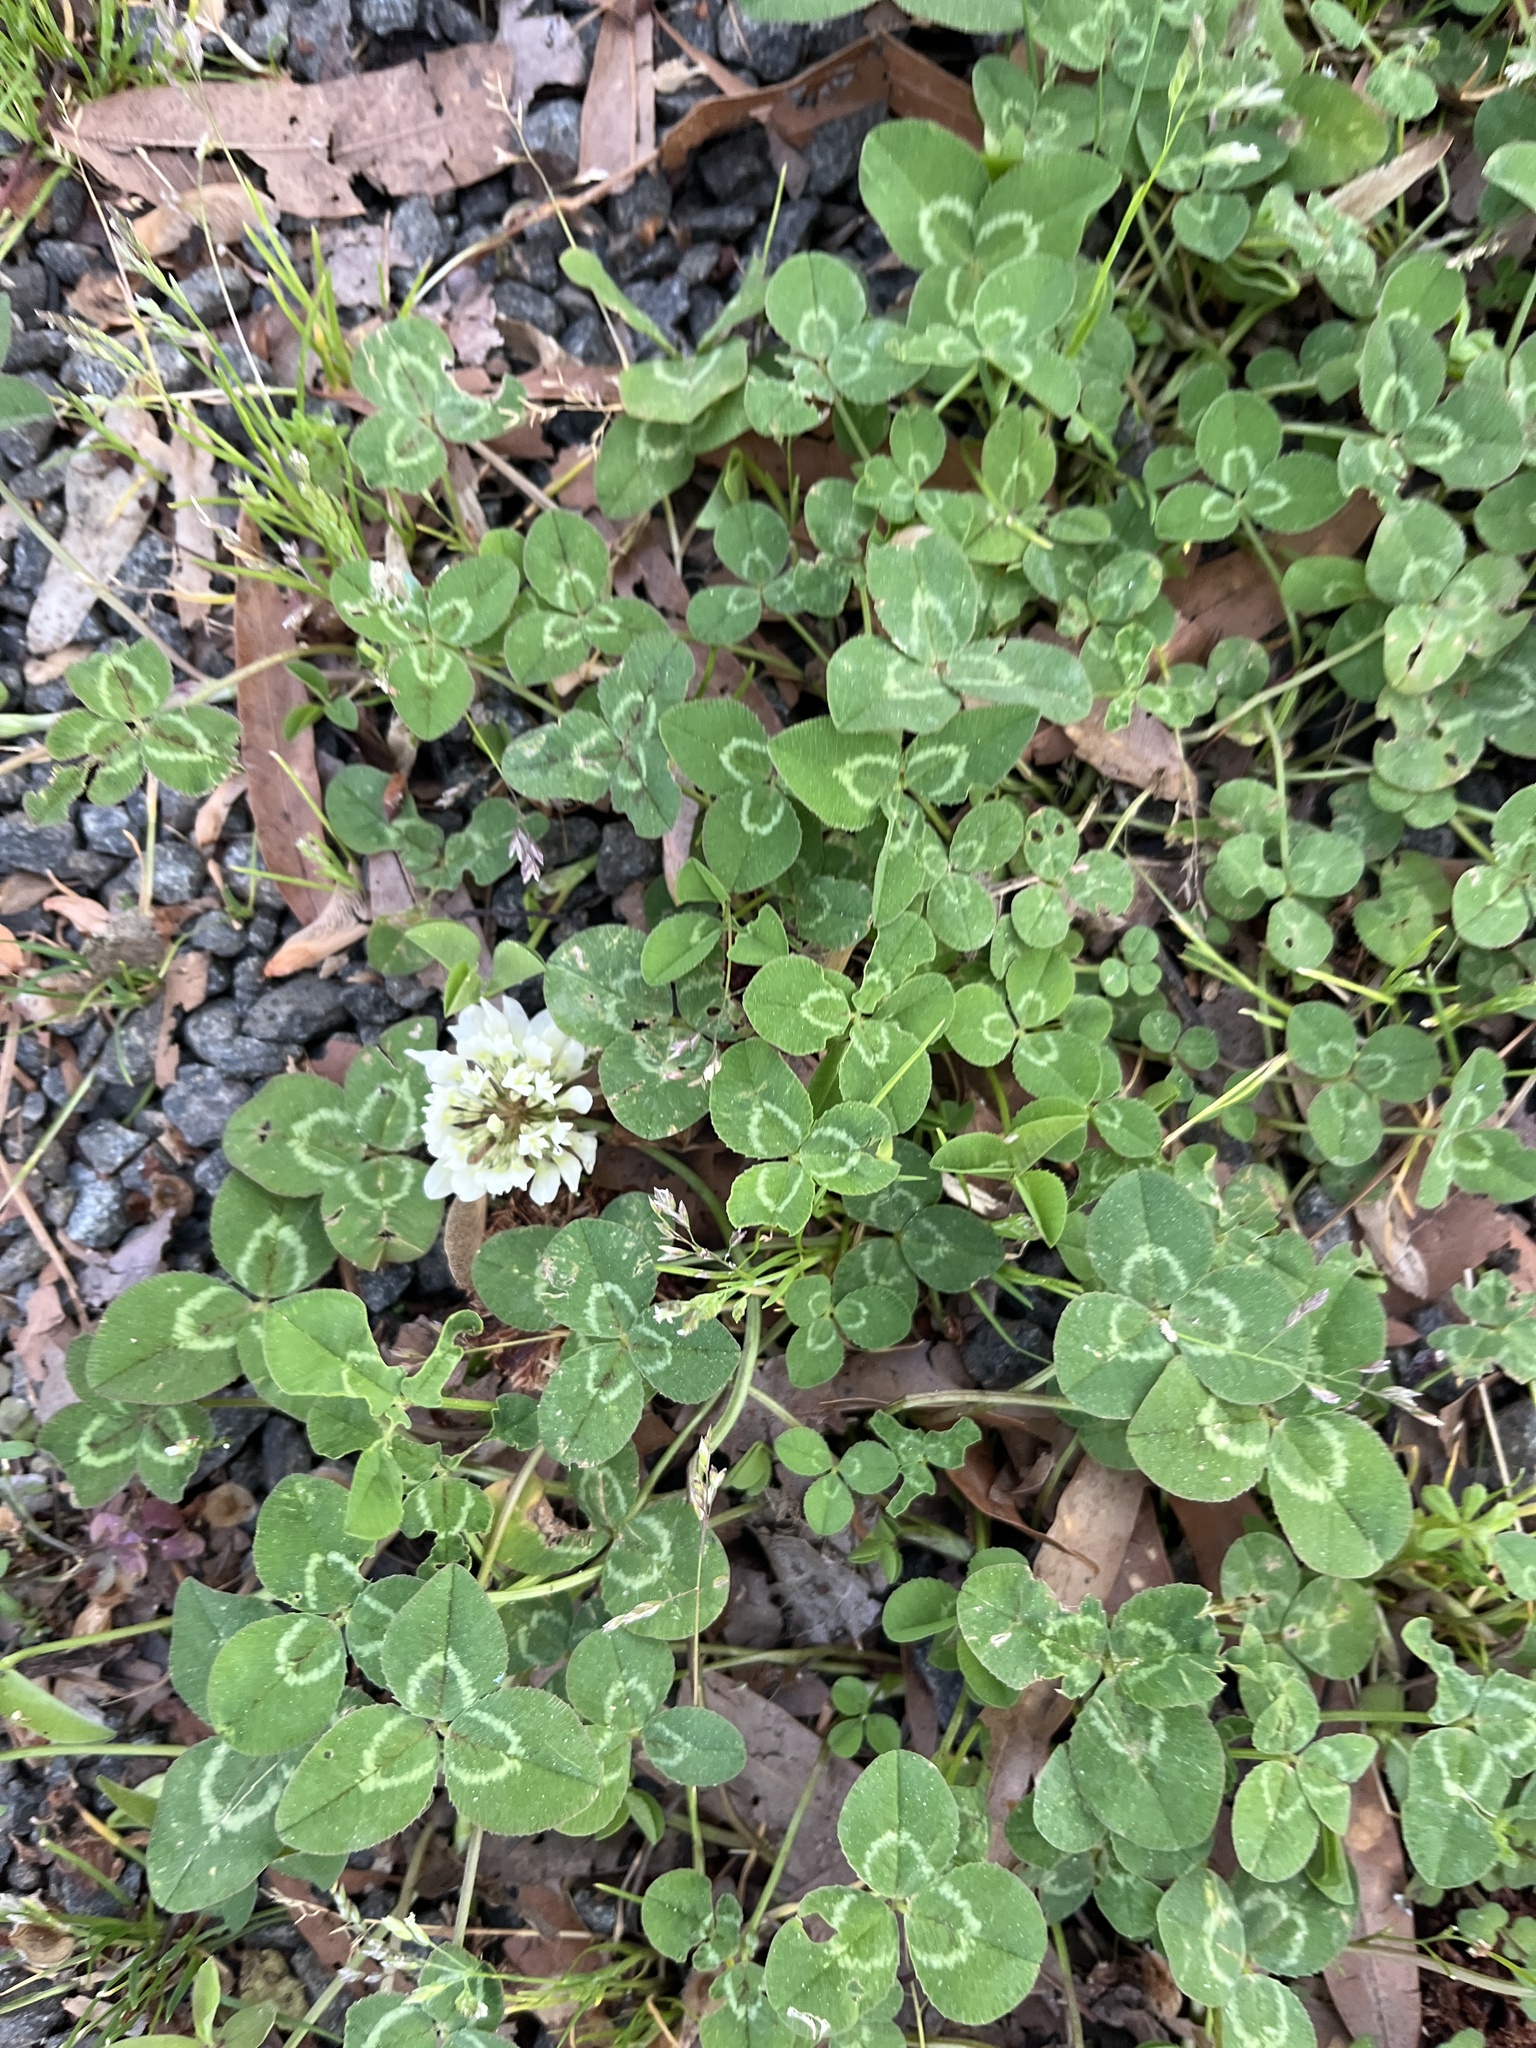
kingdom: Plantae
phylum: Tracheophyta
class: Magnoliopsida
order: Fabales
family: Fabaceae
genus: Trifolium
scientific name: Trifolium repens
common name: White clover
